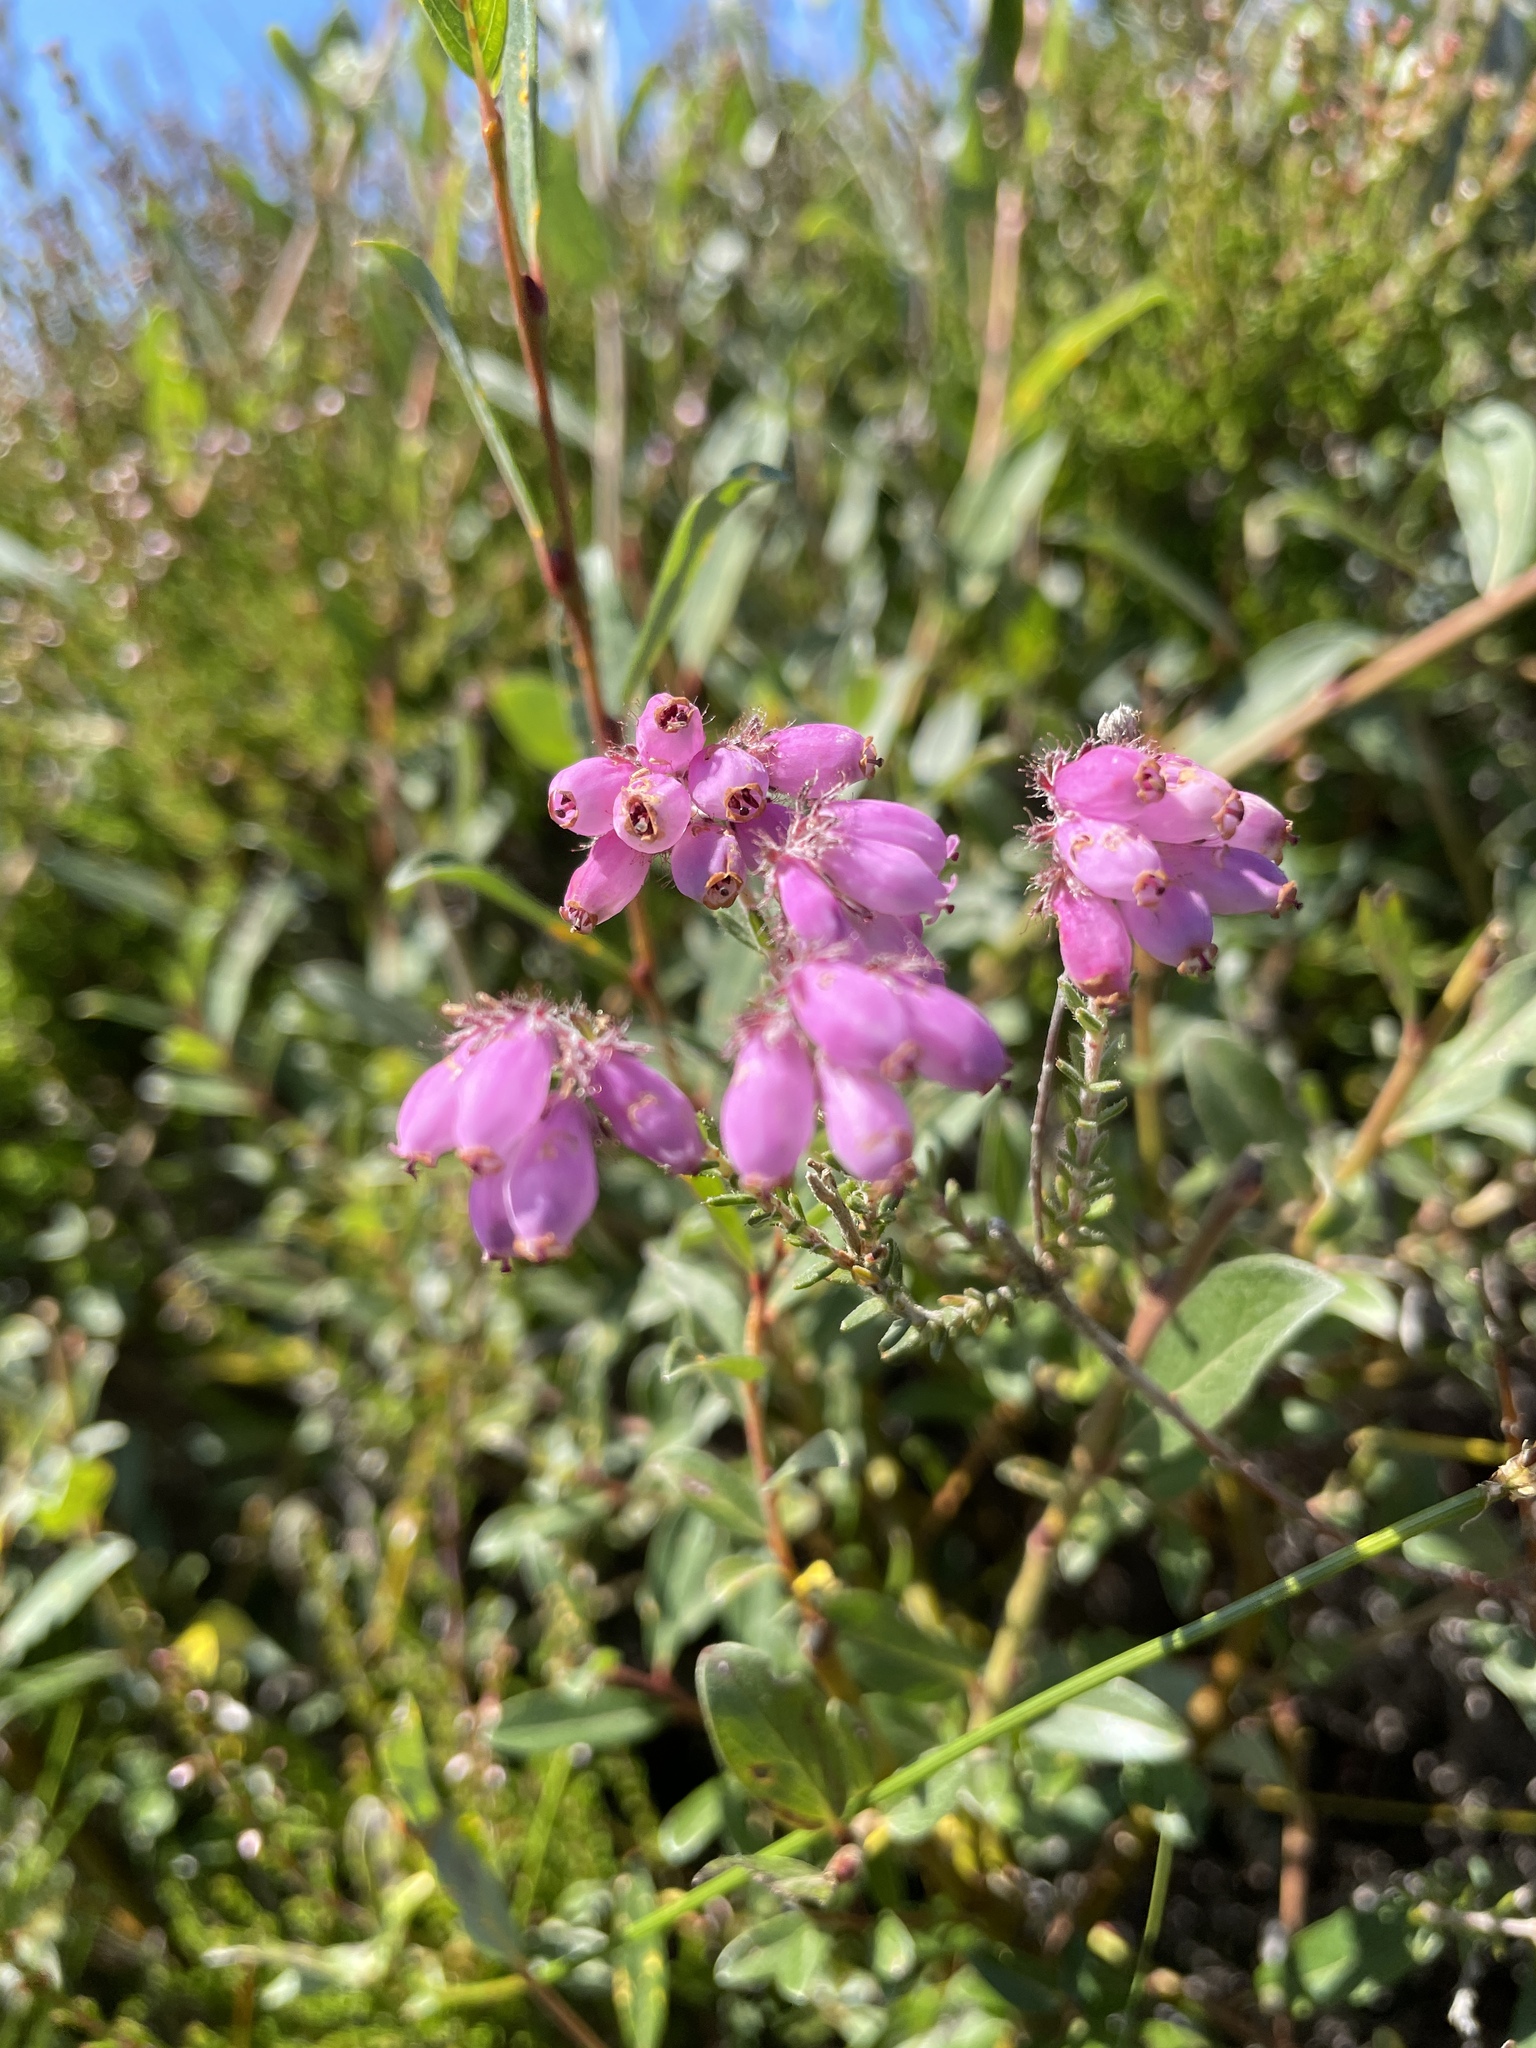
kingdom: Plantae
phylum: Tracheophyta
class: Magnoliopsida
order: Ericales
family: Ericaceae
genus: Erica
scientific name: Erica tetralix
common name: Cross-leaved heath
